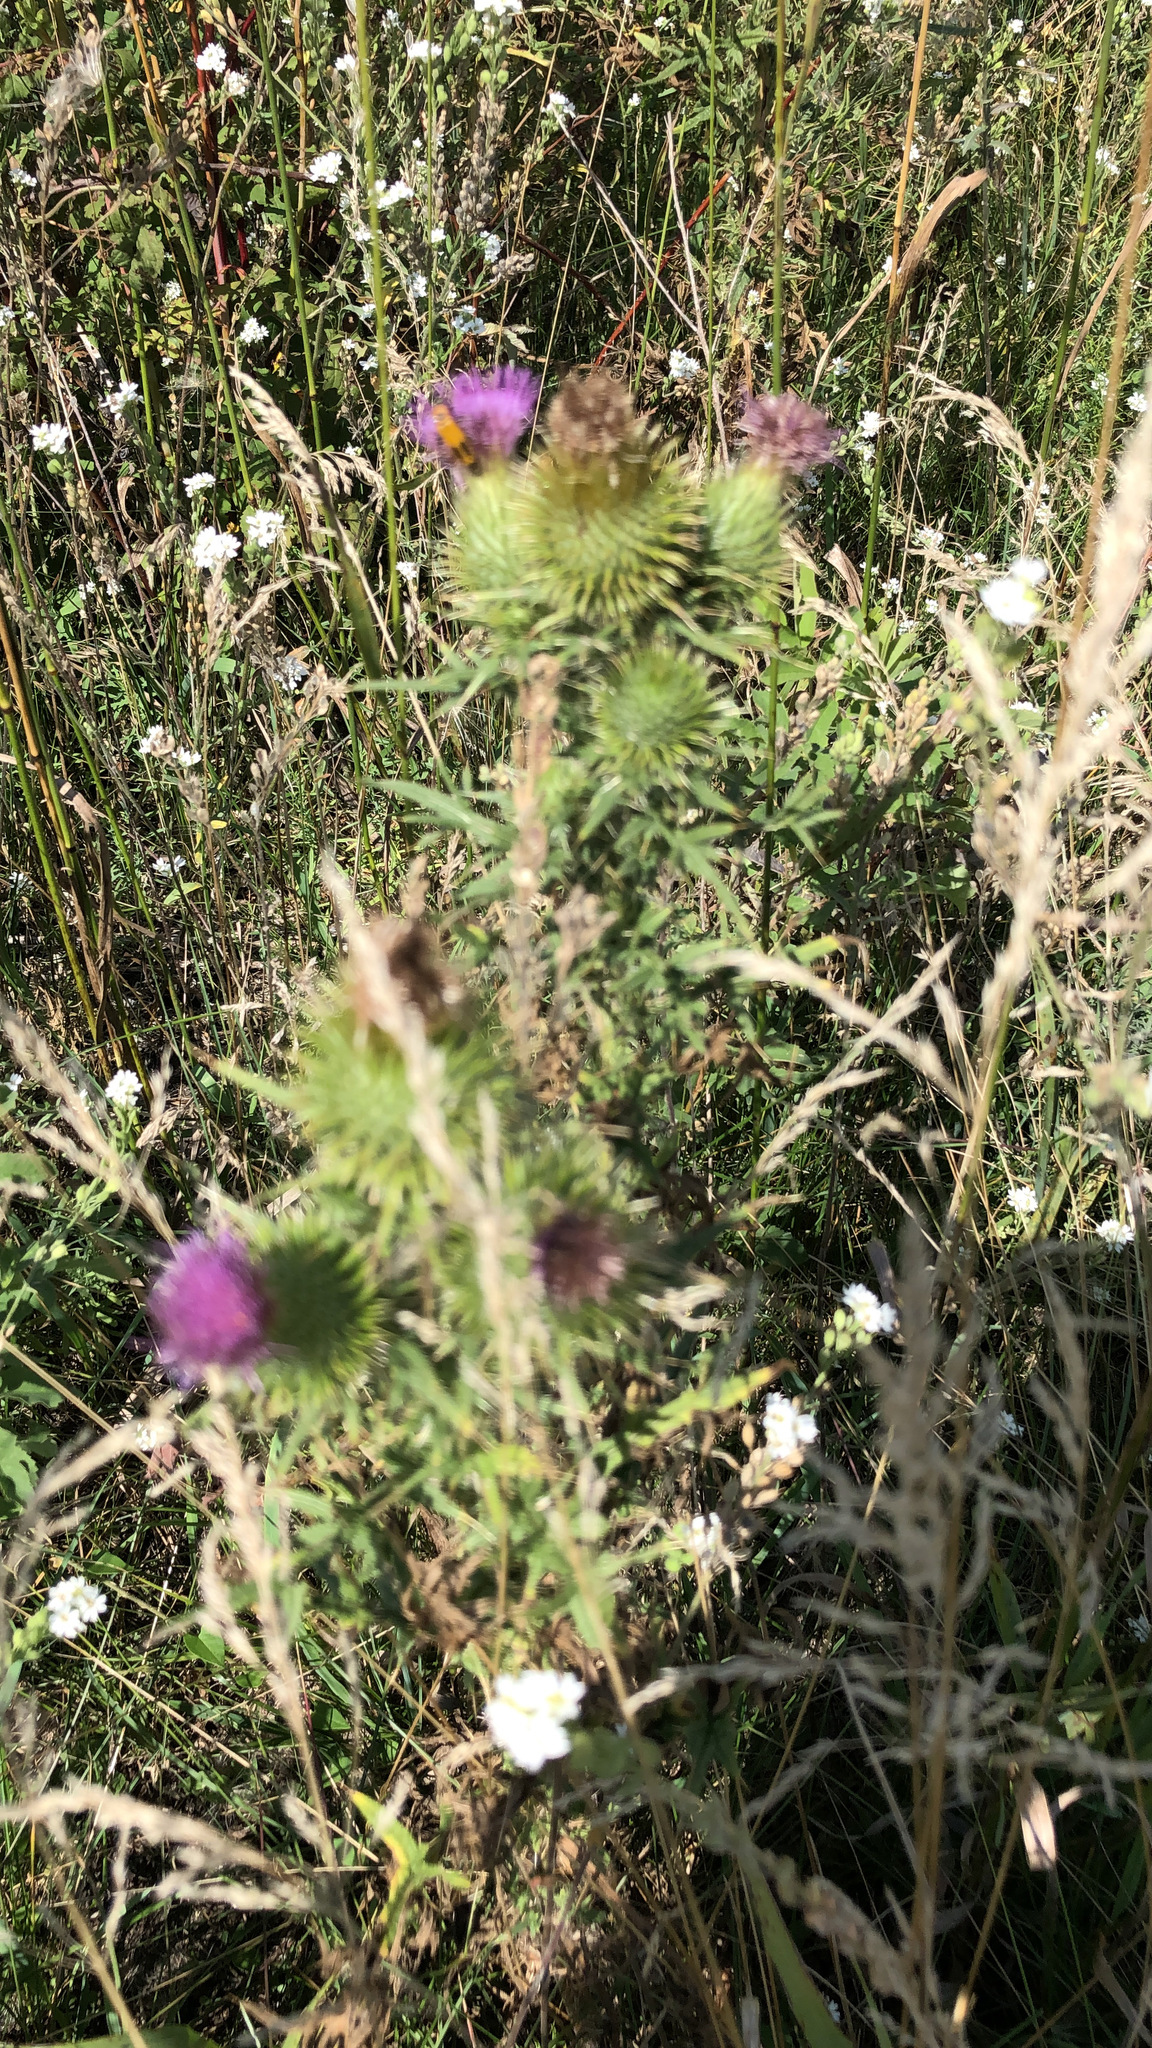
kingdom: Plantae
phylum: Tracheophyta
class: Magnoliopsida
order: Asterales
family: Asteraceae
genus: Cirsium
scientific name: Cirsium vulgare
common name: Bull thistle
